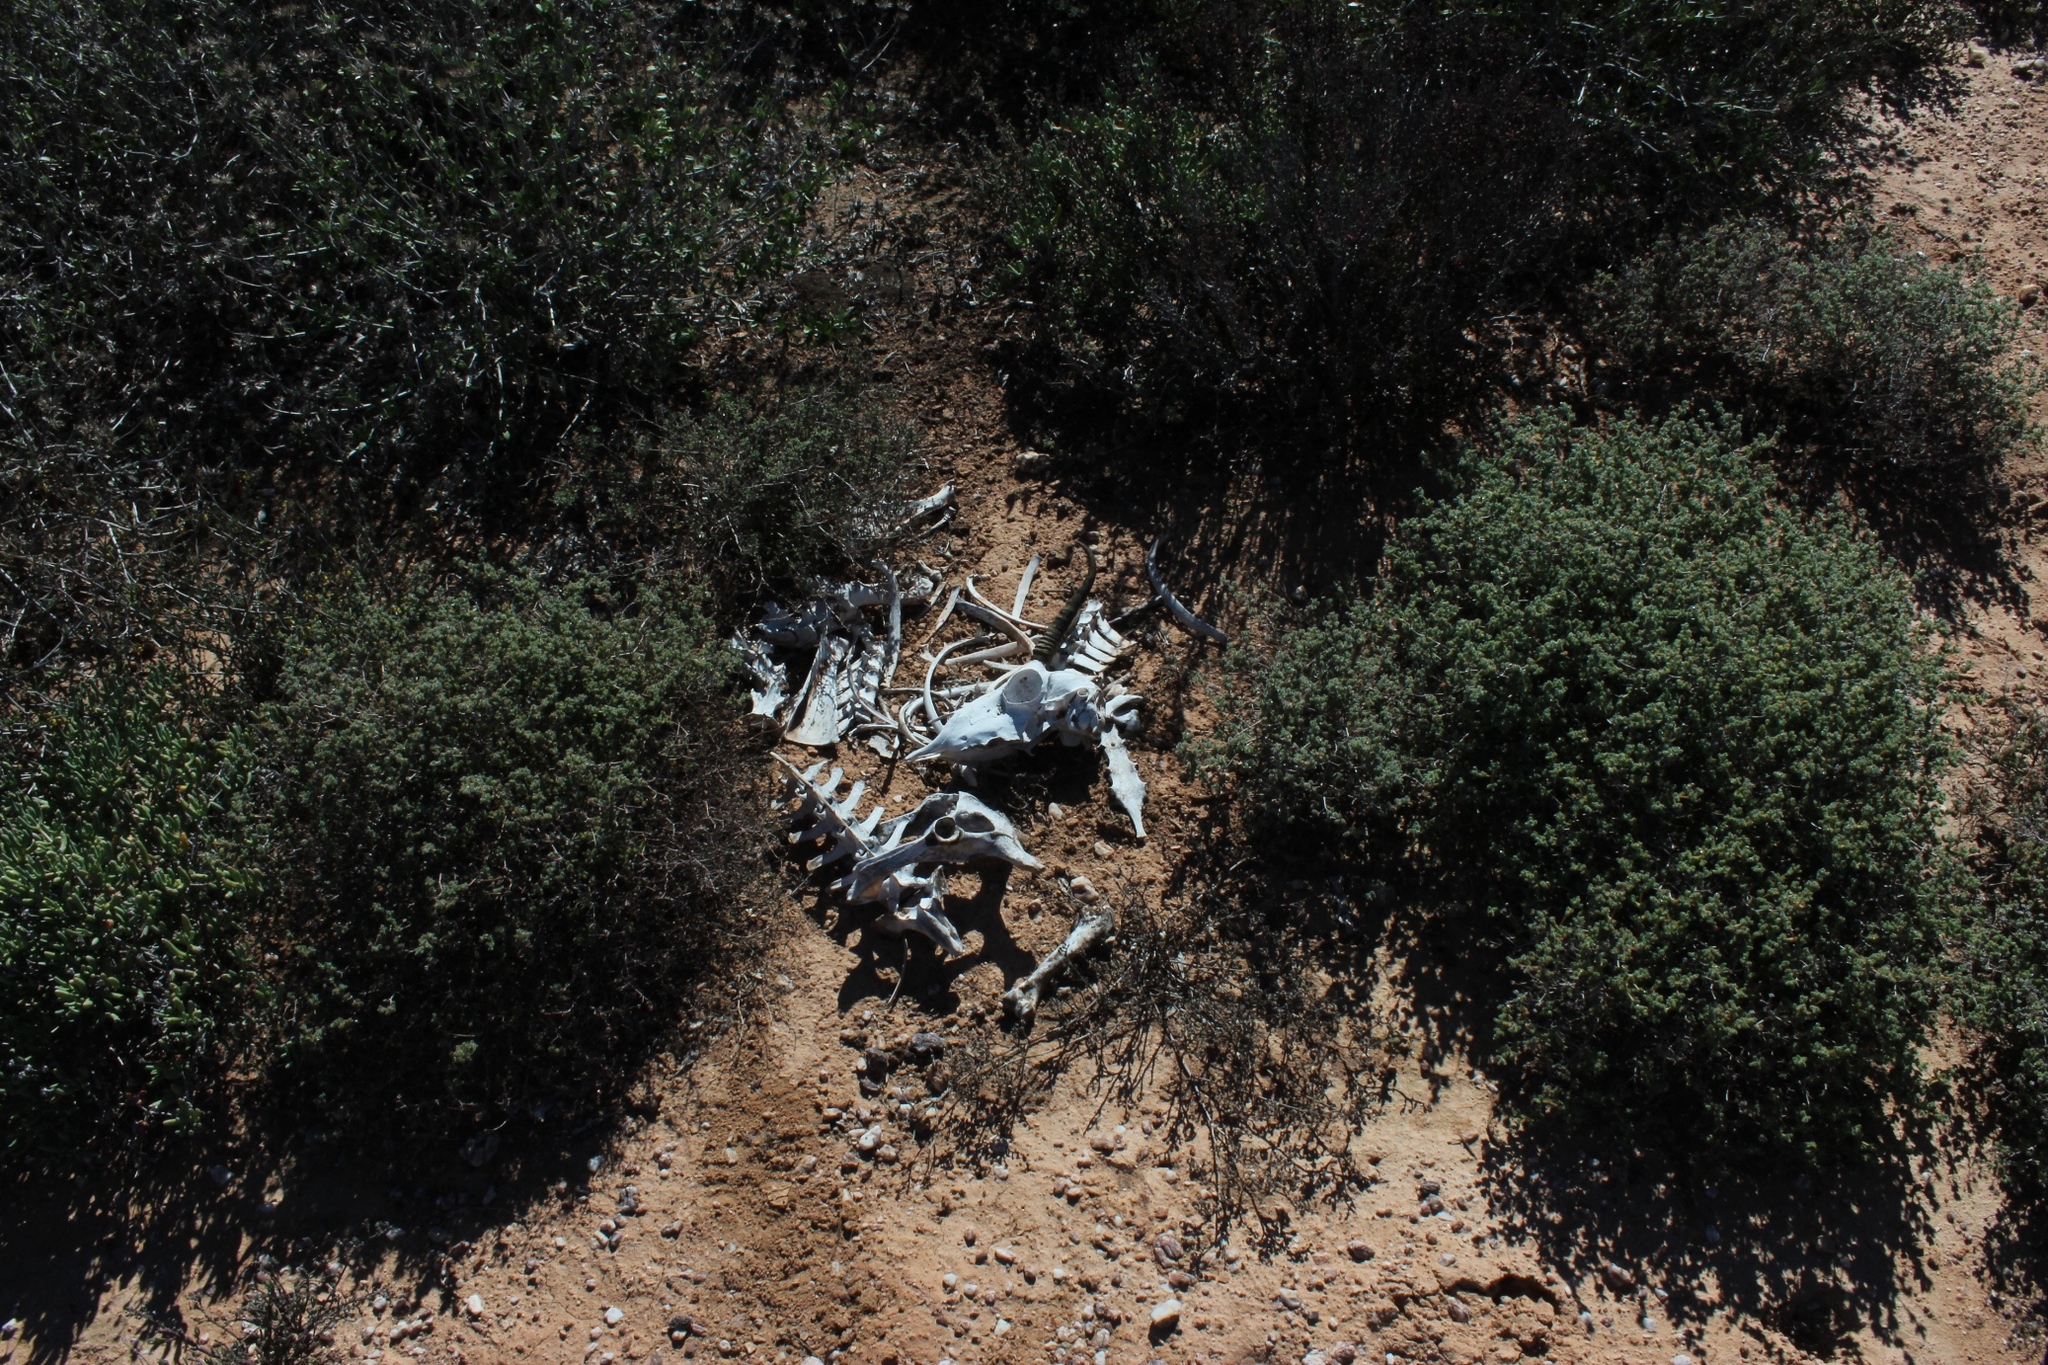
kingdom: Animalia
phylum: Chordata
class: Mammalia
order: Artiodactyla
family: Bovidae
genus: Antidorcas
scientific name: Antidorcas marsupialis
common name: Springbok
